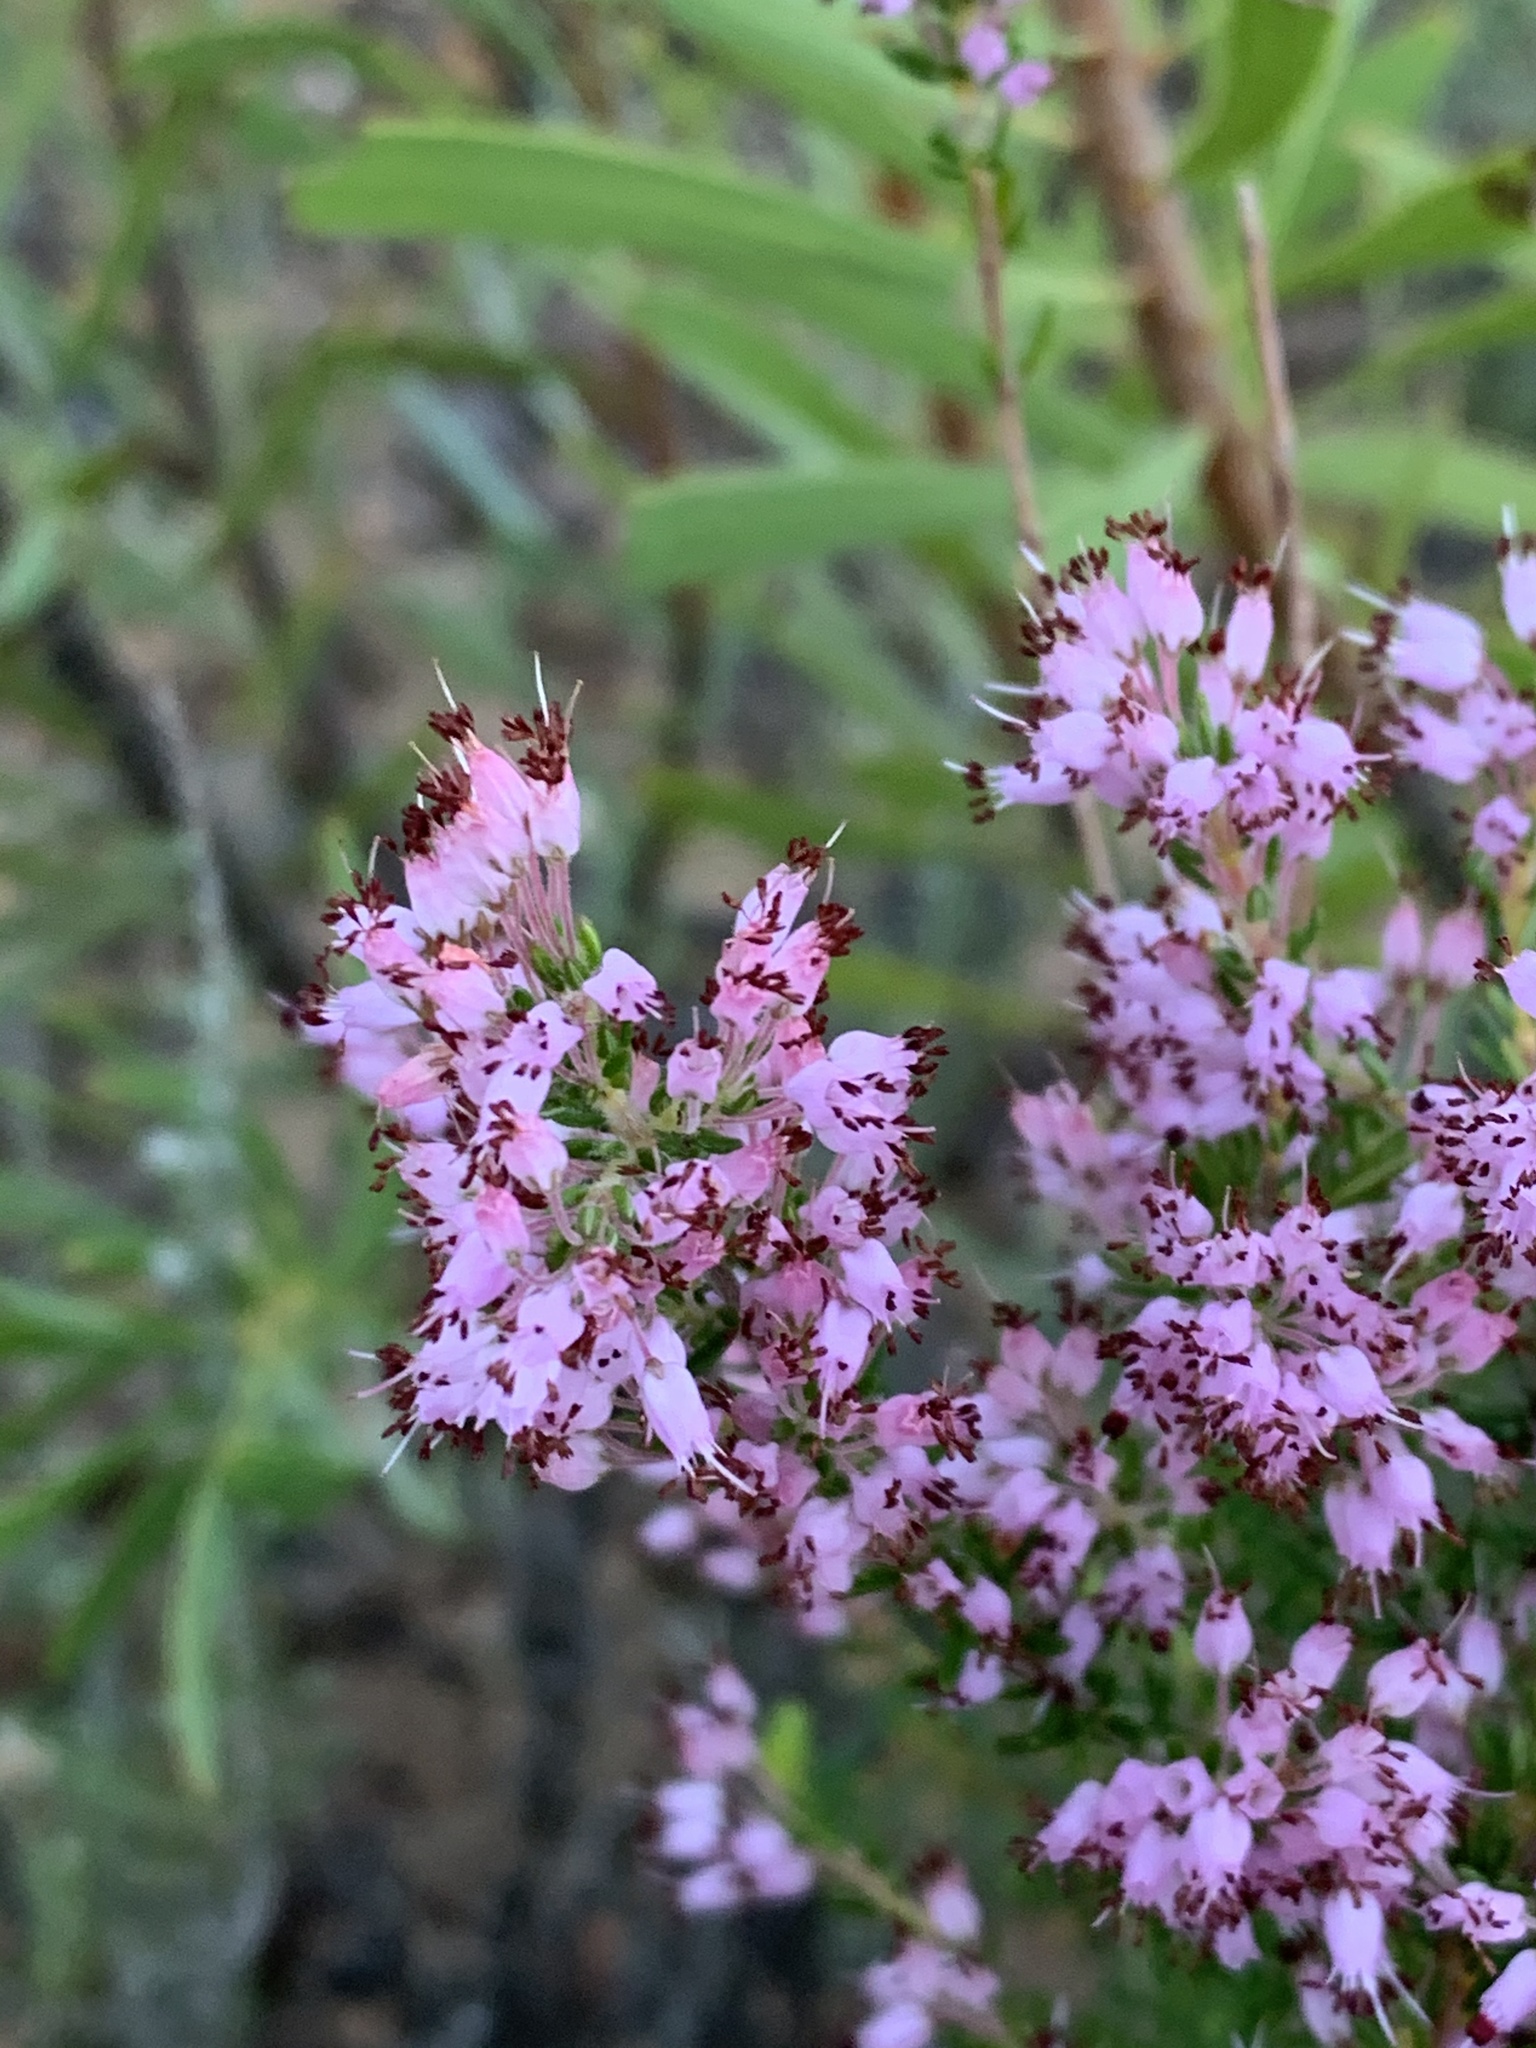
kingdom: Plantae
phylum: Tracheophyta
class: Magnoliopsida
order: Ericales
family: Ericaceae
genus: Erica
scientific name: Erica nudiflora
